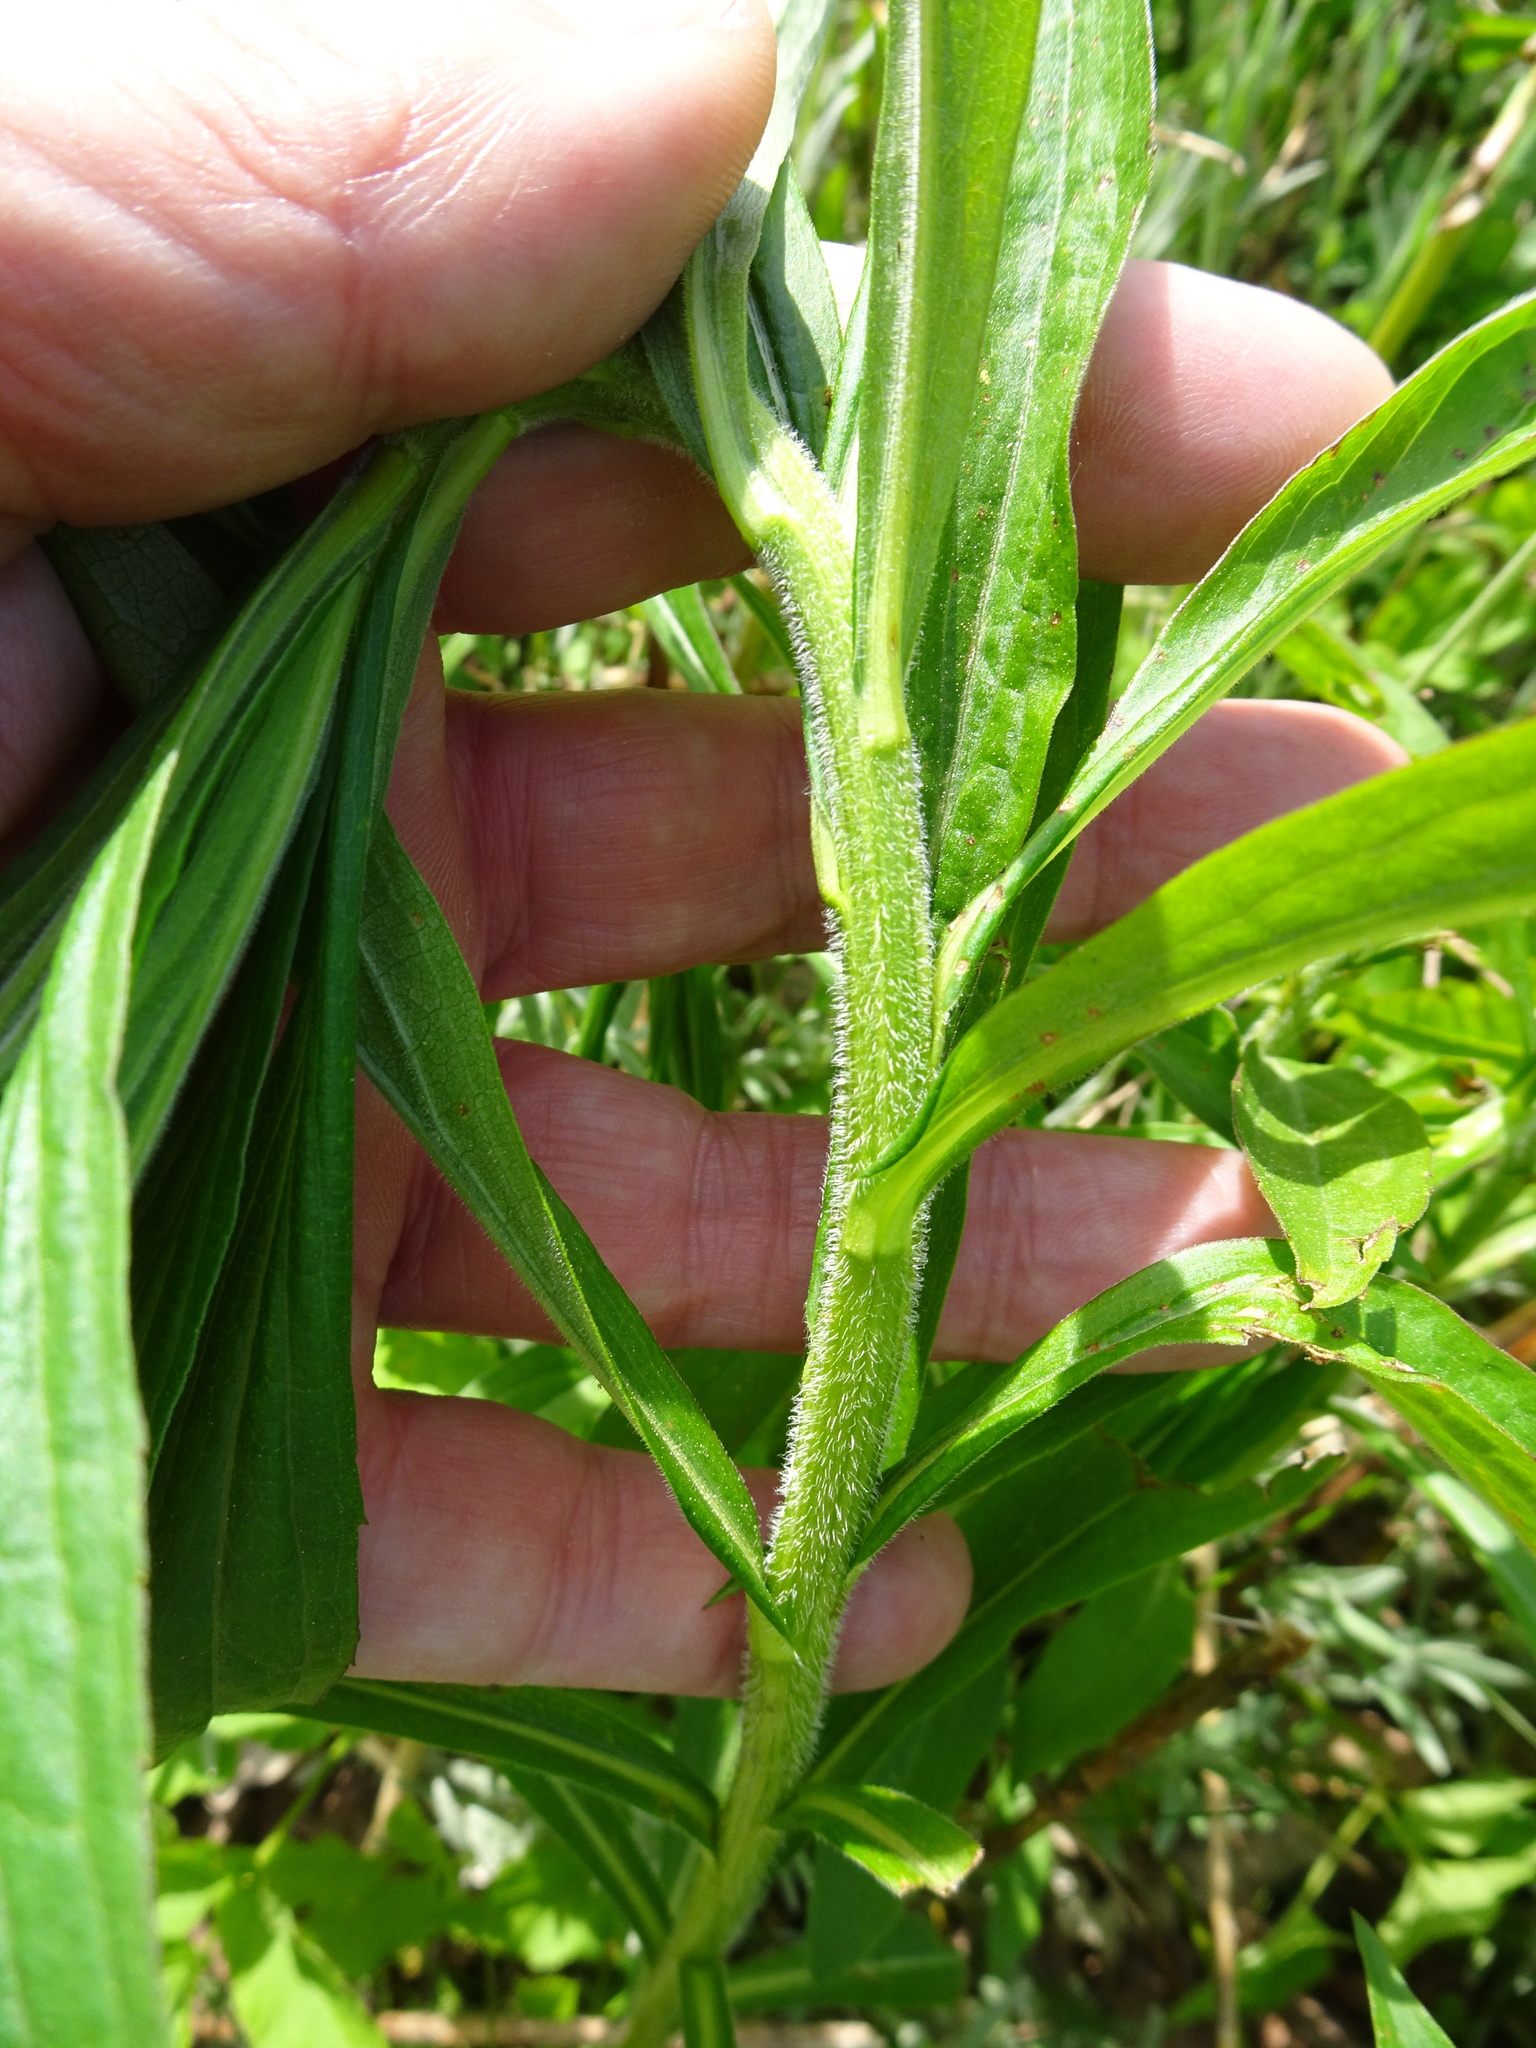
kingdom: Plantae
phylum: Tracheophyta
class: Magnoliopsida
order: Asterales
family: Asteraceae
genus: Solidago
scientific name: Solidago canadensis
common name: Canada goldenrod
